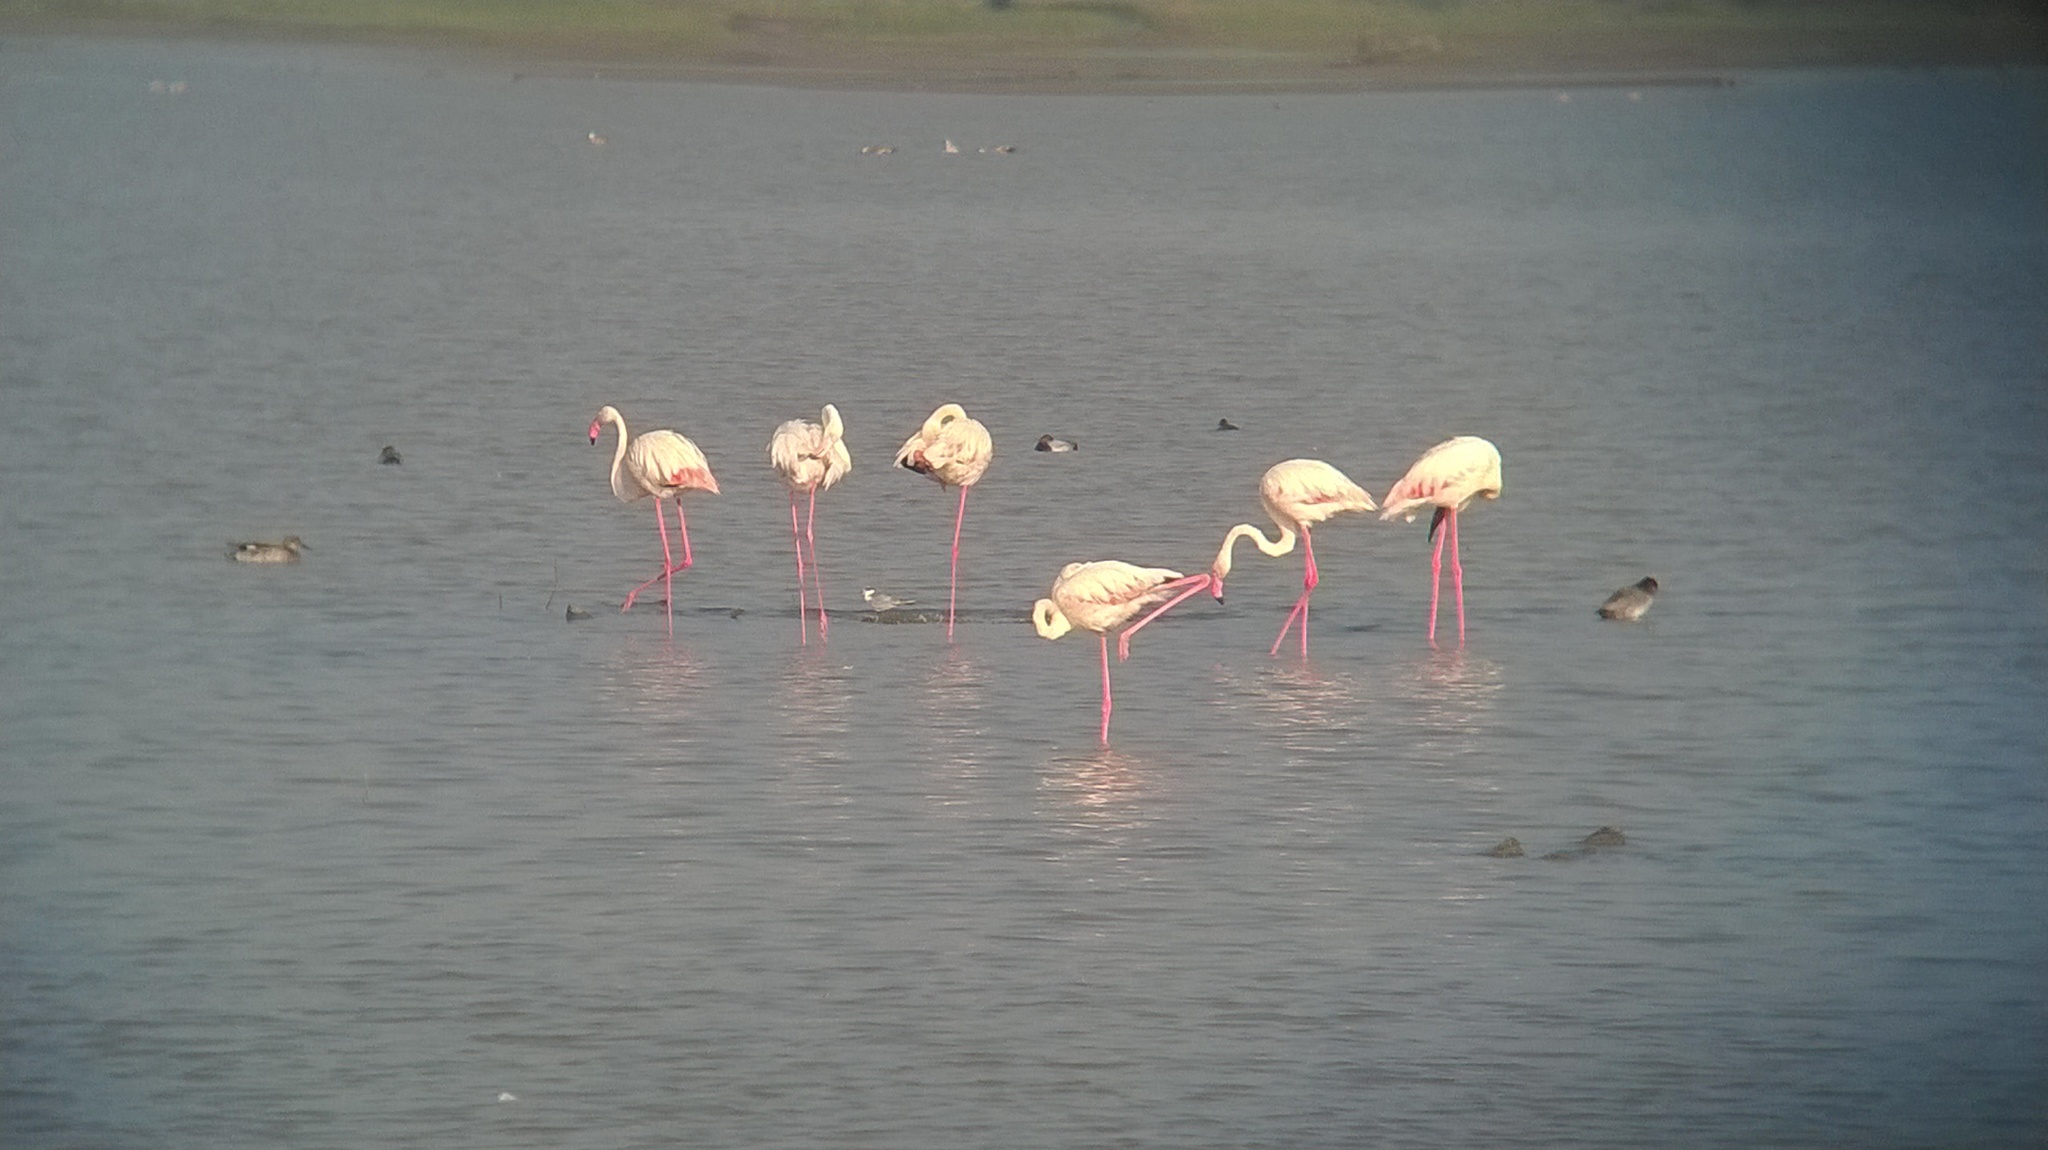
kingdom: Animalia
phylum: Chordata
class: Aves
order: Phoenicopteriformes
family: Phoenicopteridae
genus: Phoenicopterus
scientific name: Phoenicopterus roseus
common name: Greater flamingo
